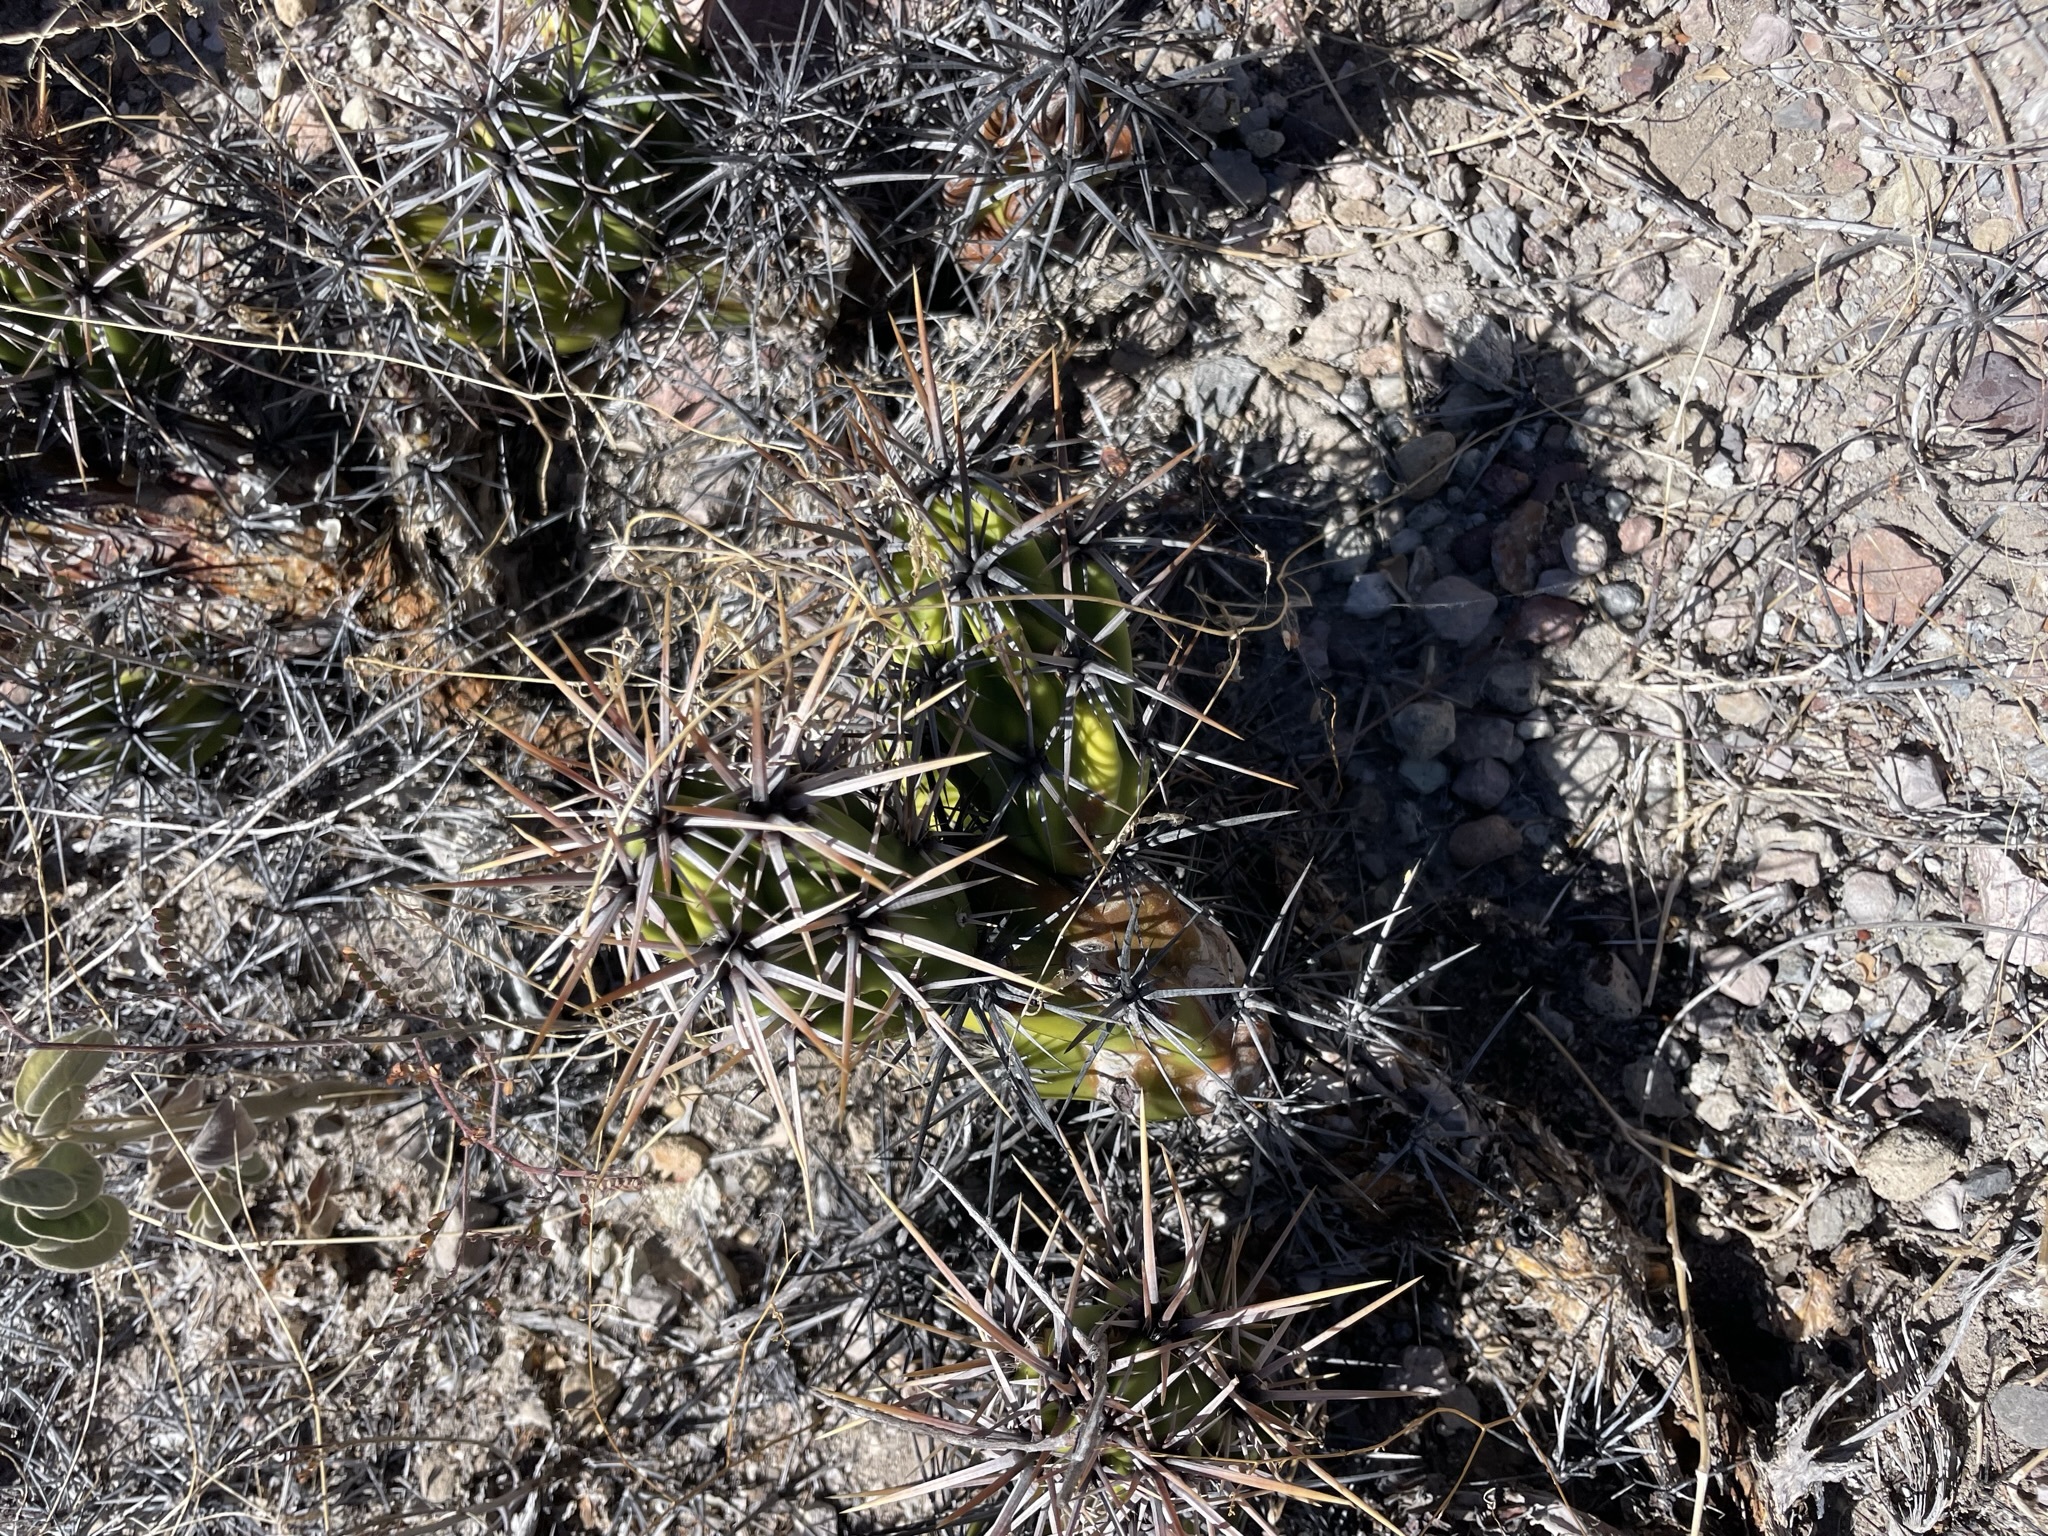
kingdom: Plantae
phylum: Tracheophyta
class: Magnoliopsida
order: Caryophyllales
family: Cactaceae
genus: Grusonia
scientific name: Grusonia invicta
